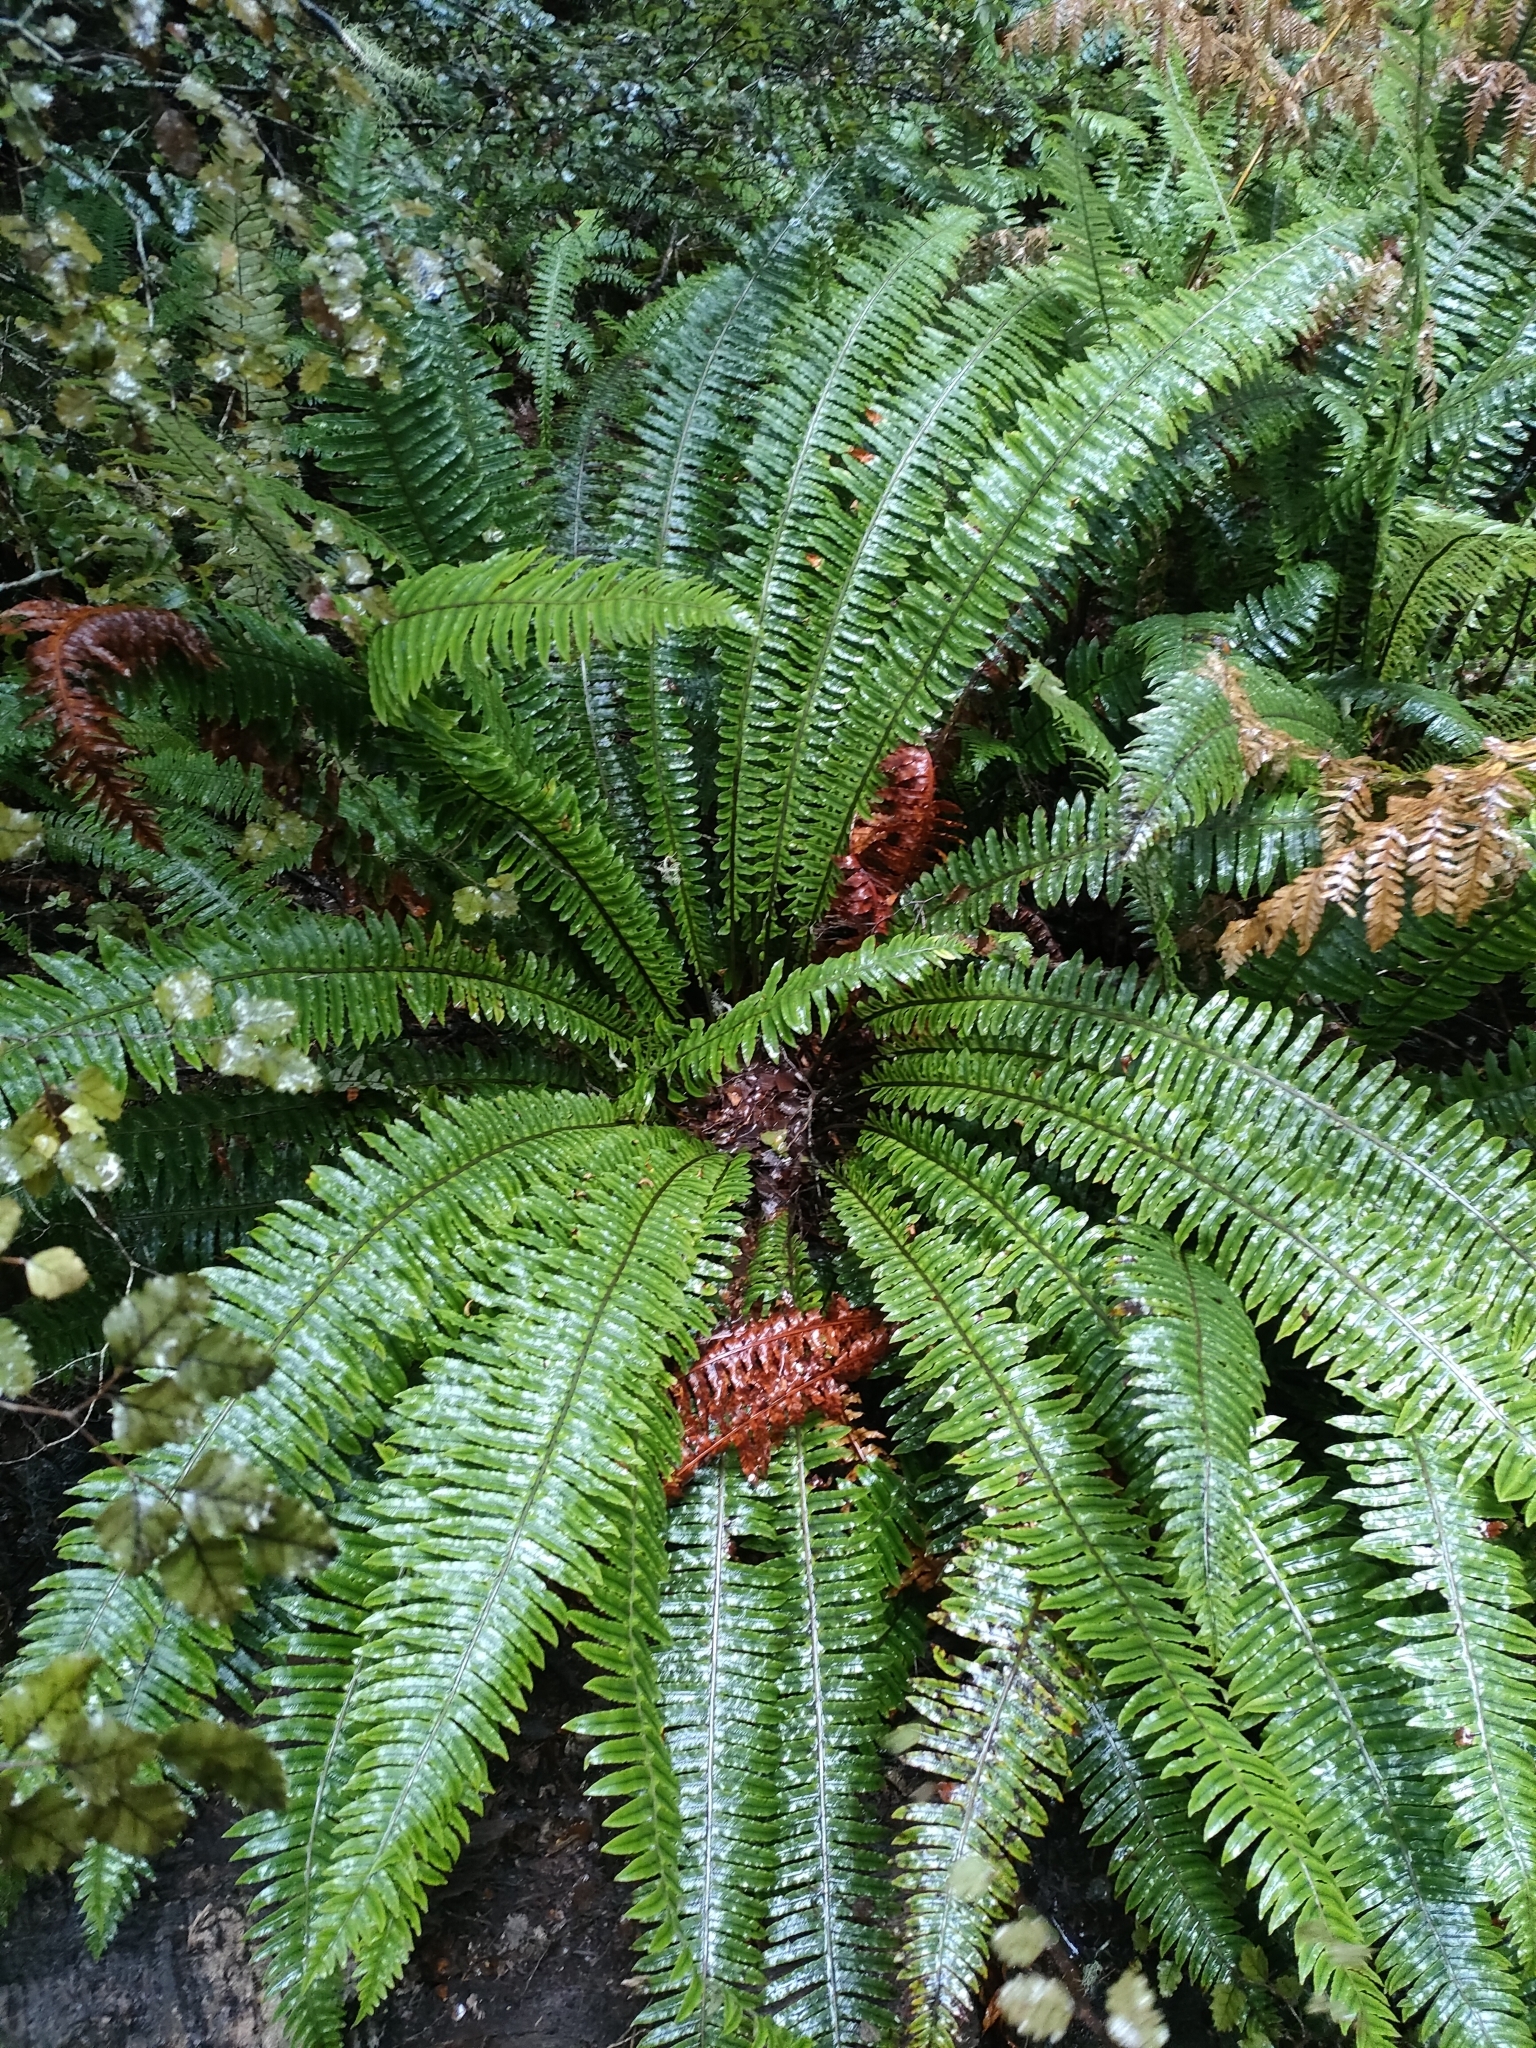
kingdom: Plantae
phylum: Tracheophyta
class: Polypodiopsida
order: Polypodiales
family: Blechnaceae
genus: Lomaria
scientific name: Lomaria discolor
